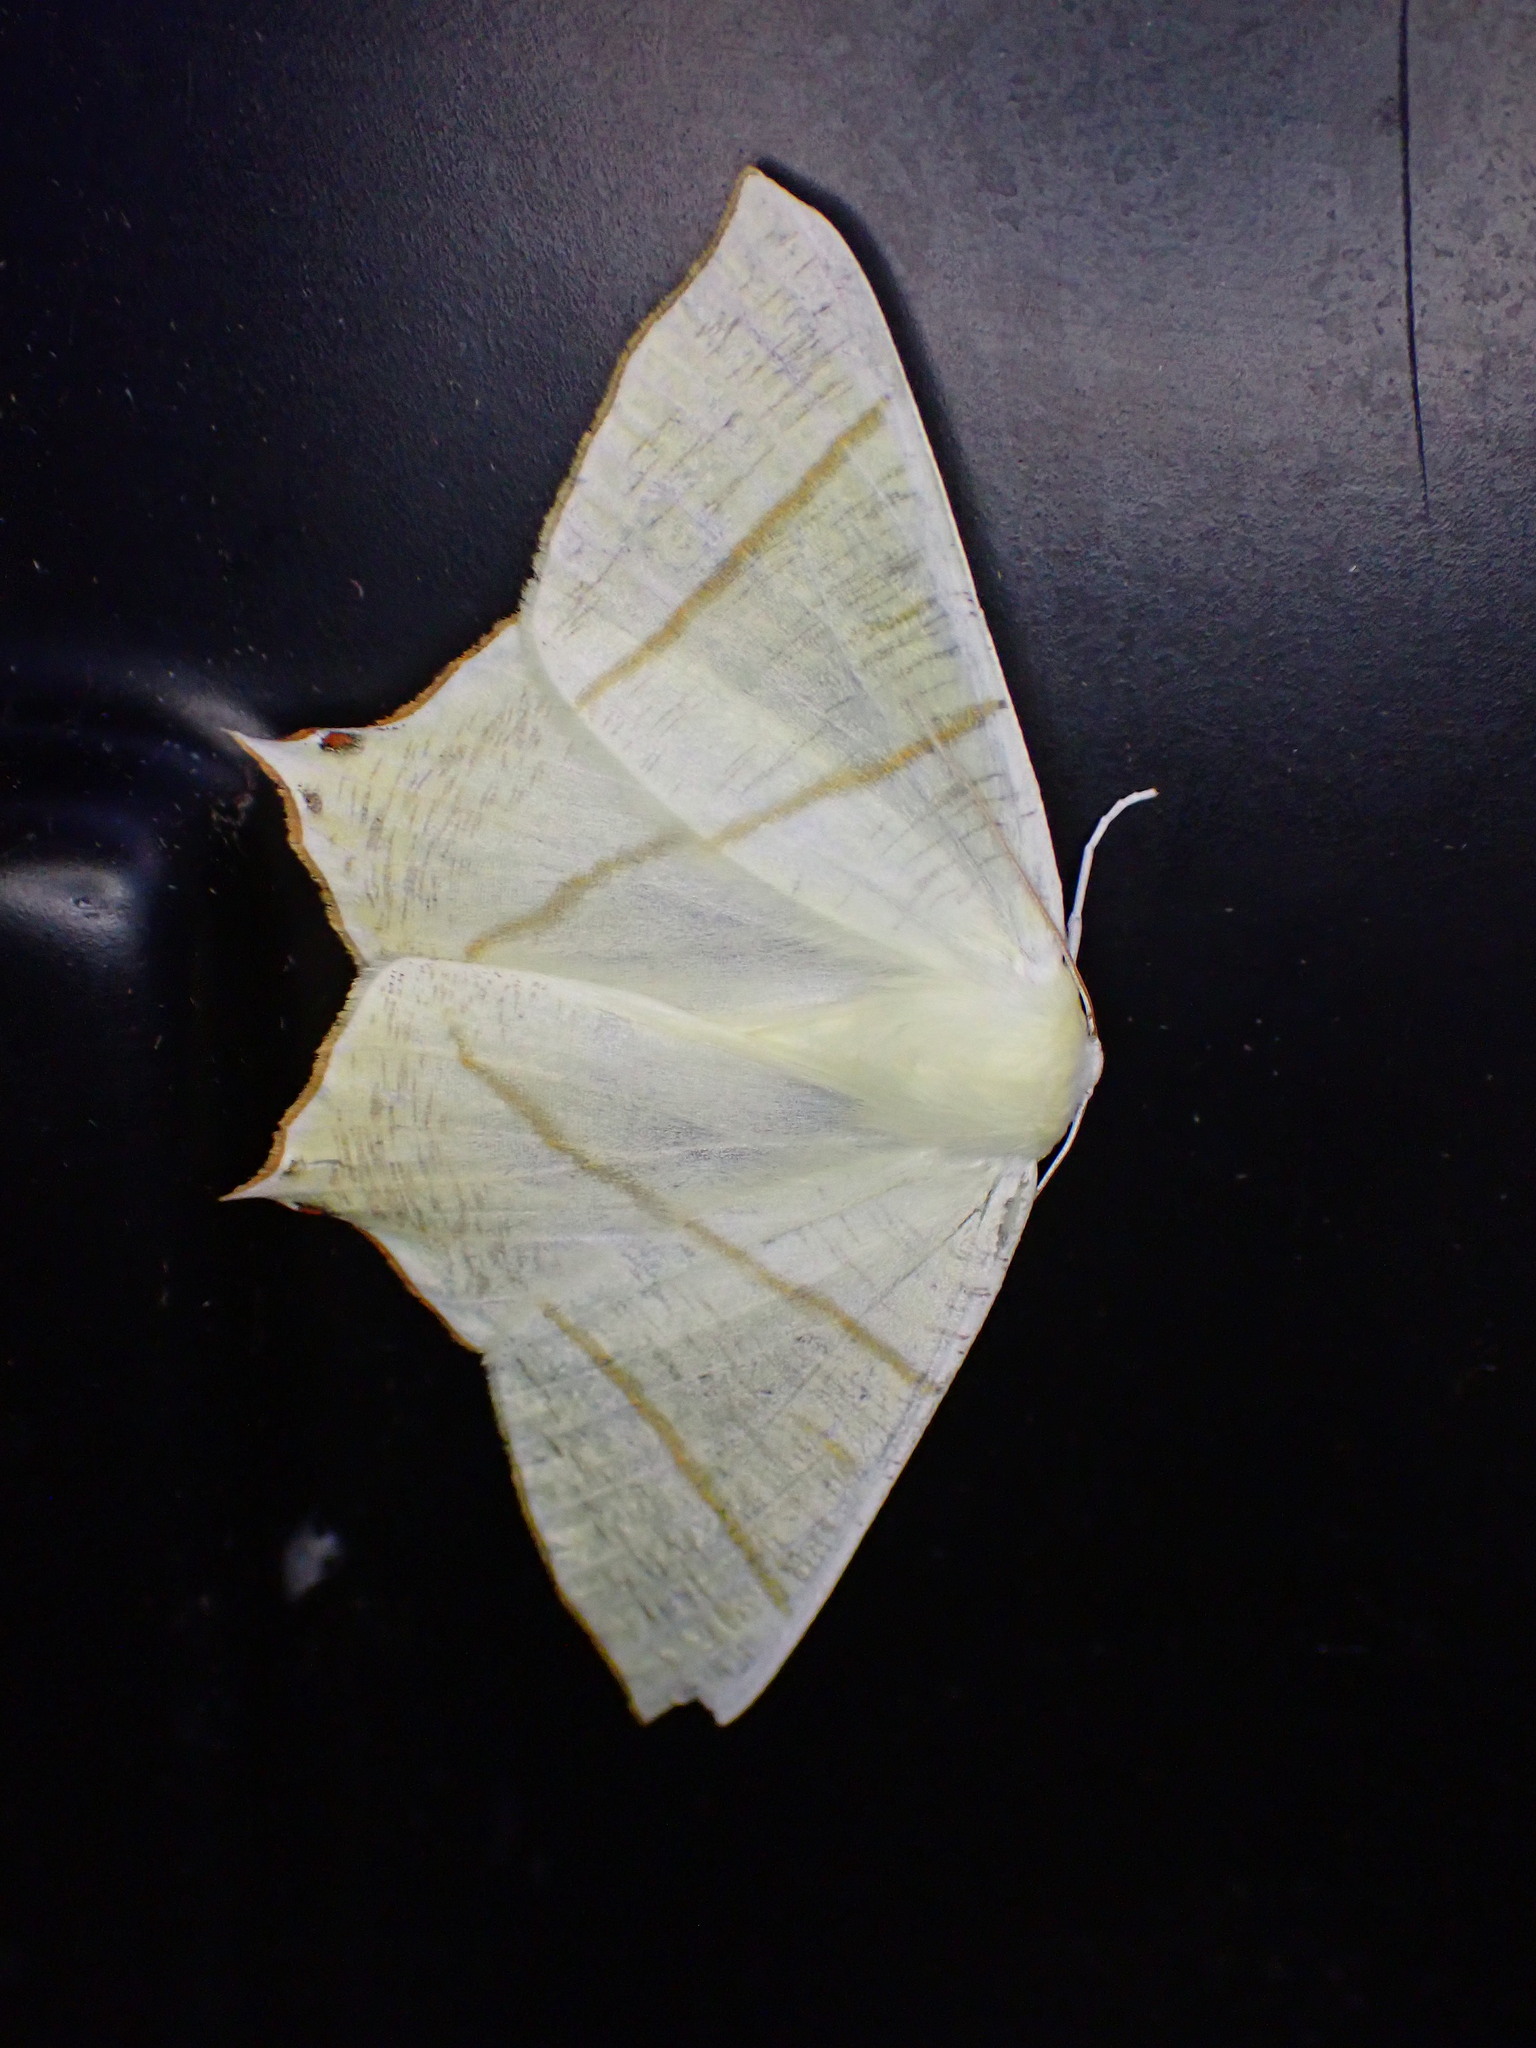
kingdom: Animalia
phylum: Arthropoda
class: Insecta
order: Lepidoptera
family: Geometridae
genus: Ourapteryx
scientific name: Ourapteryx sambucaria
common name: Swallow-tailed moth
